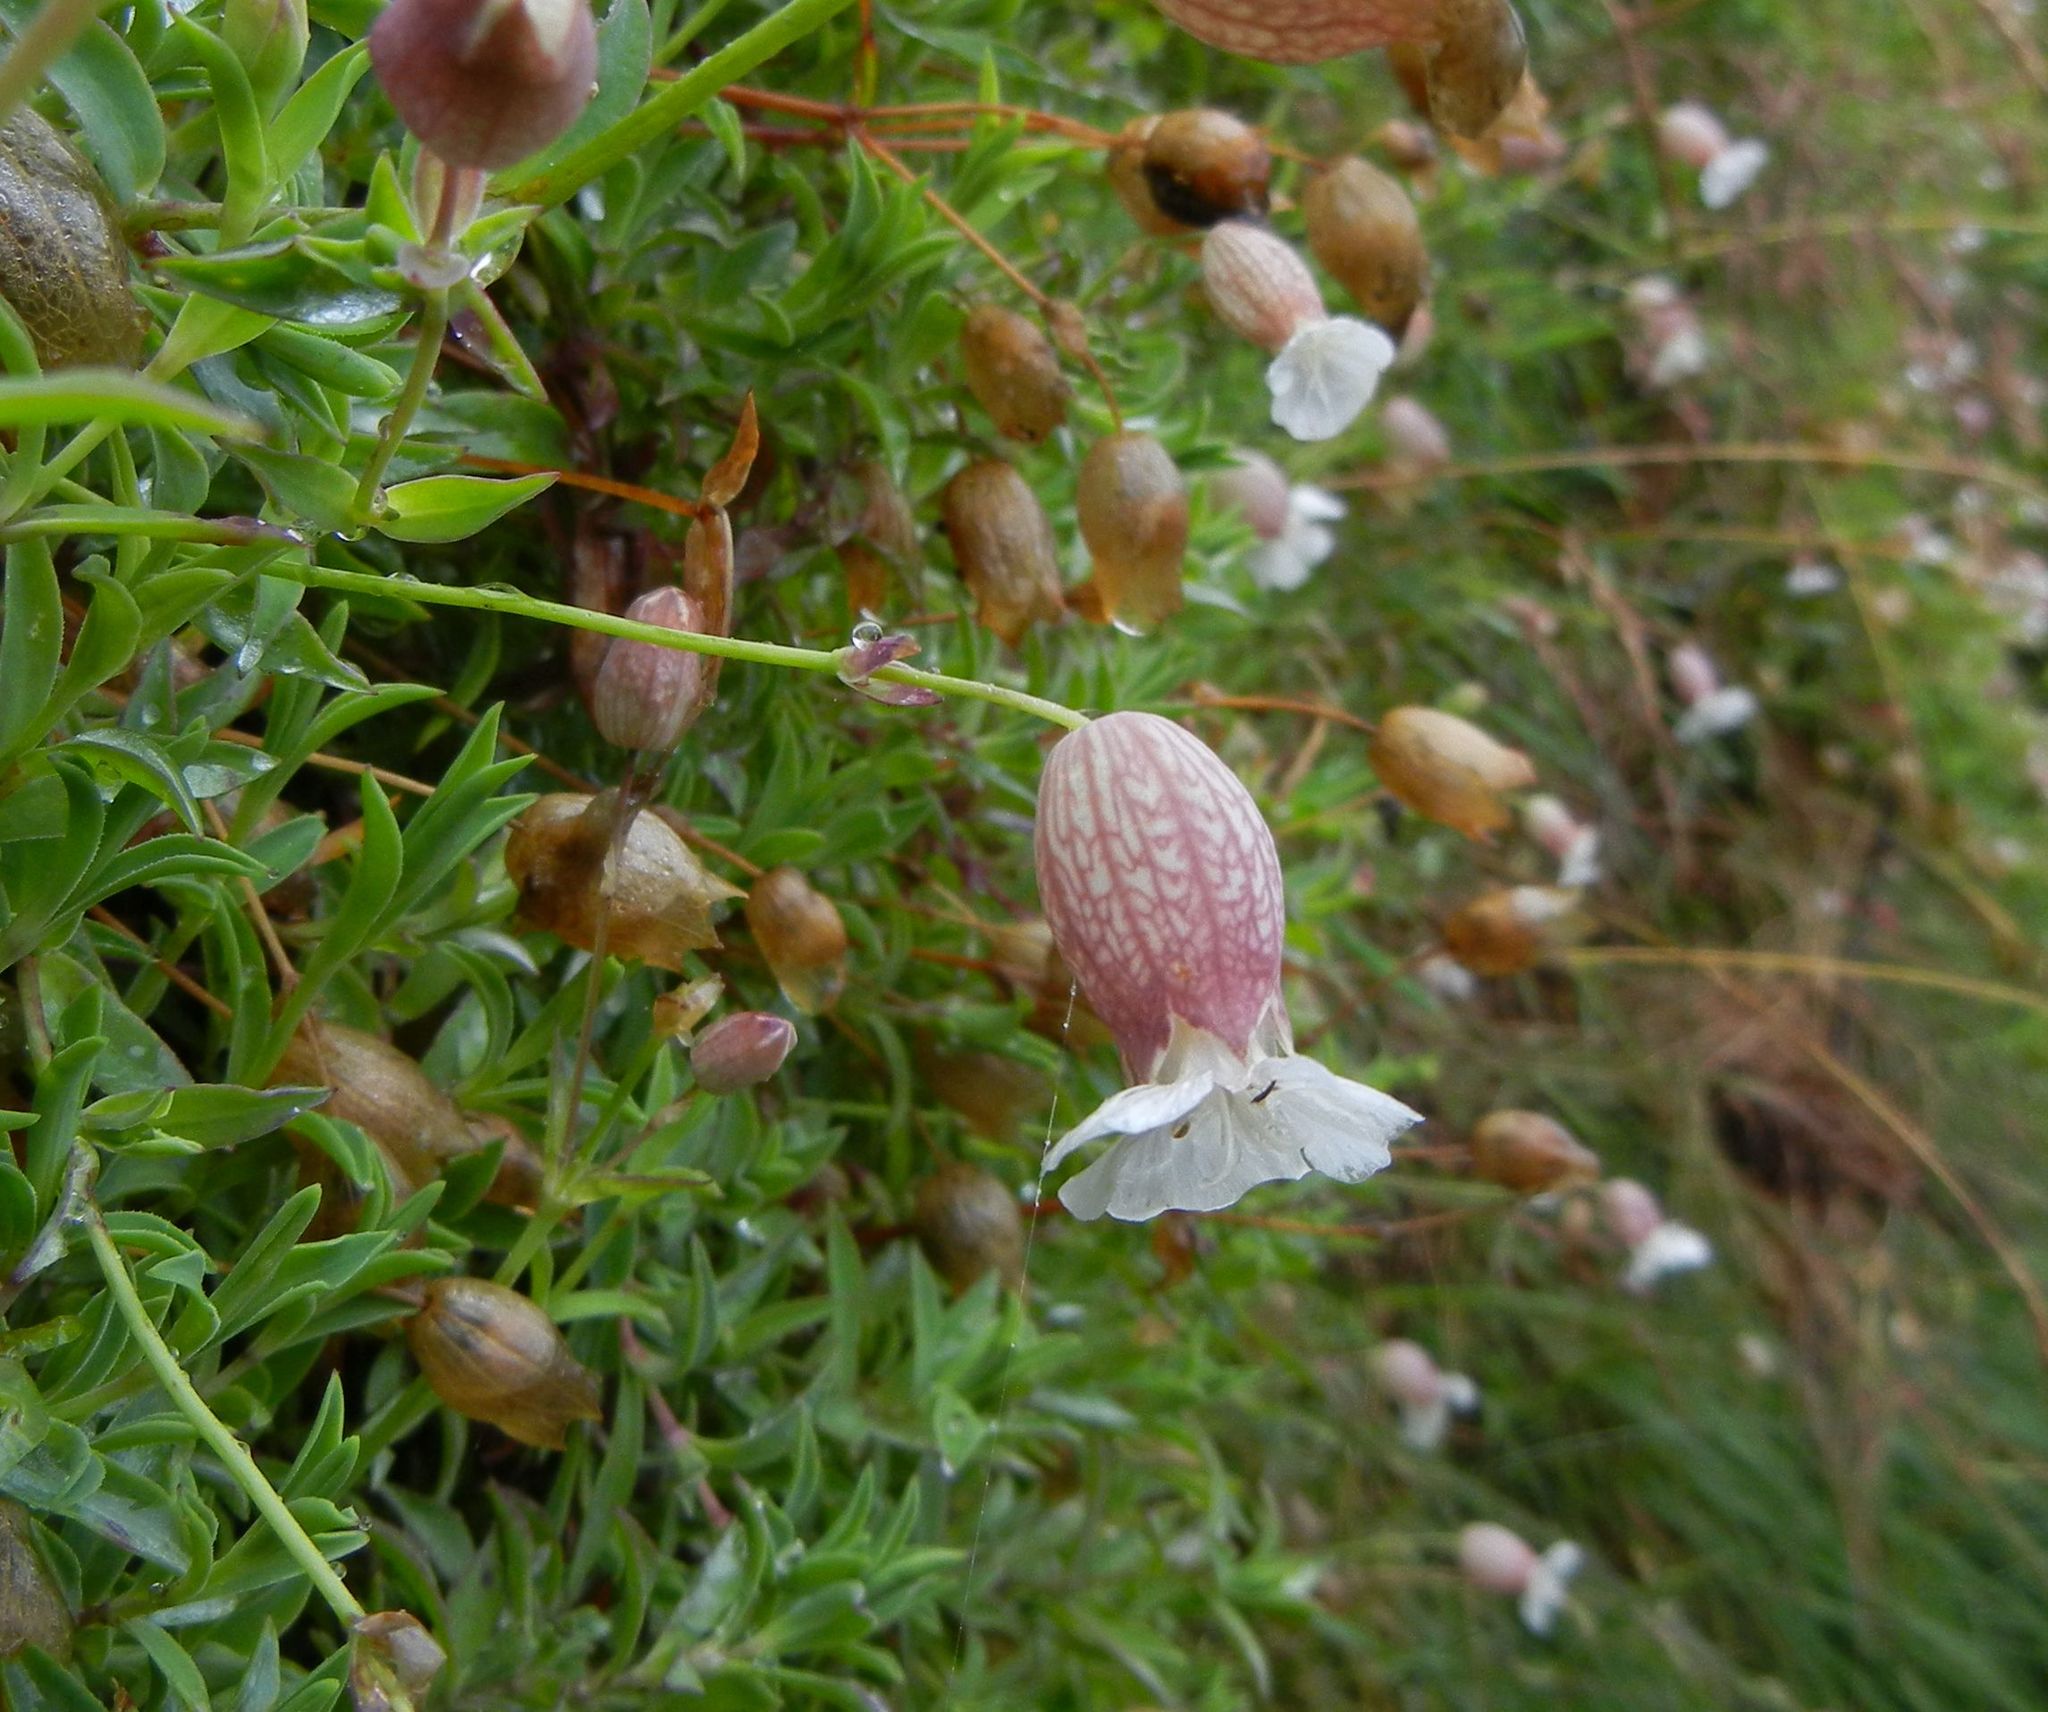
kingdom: Plantae
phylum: Tracheophyta
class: Magnoliopsida
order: Caryophyllales
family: Caryophyllaceae
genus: Silene
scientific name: Silene uniflora
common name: Sea campion
